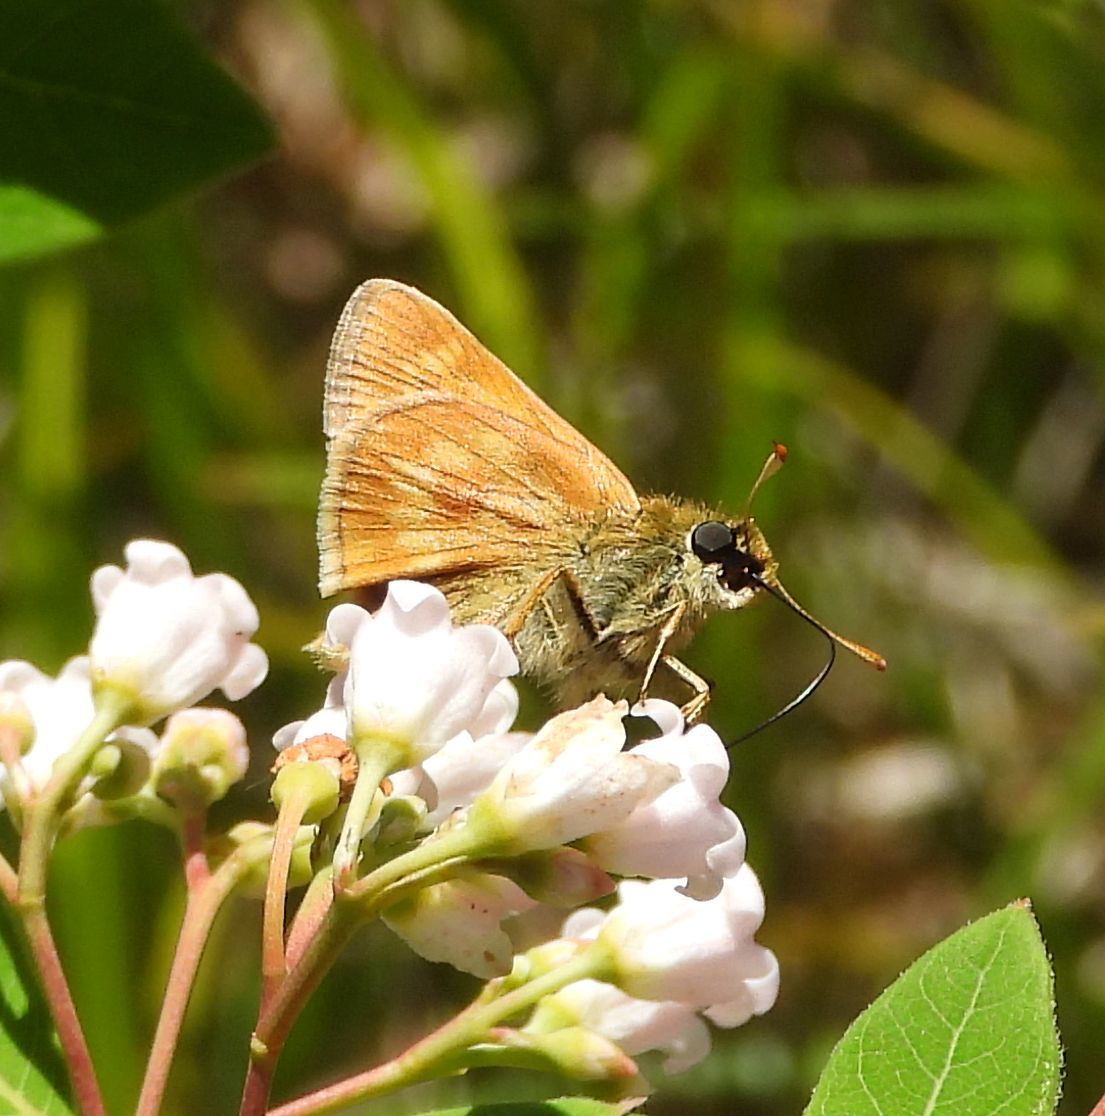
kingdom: Animalia
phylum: Arthropoda
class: Insecta
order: Lepidoptera
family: Hesperiidae
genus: Polites
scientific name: Polites mystic
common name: Long dash
